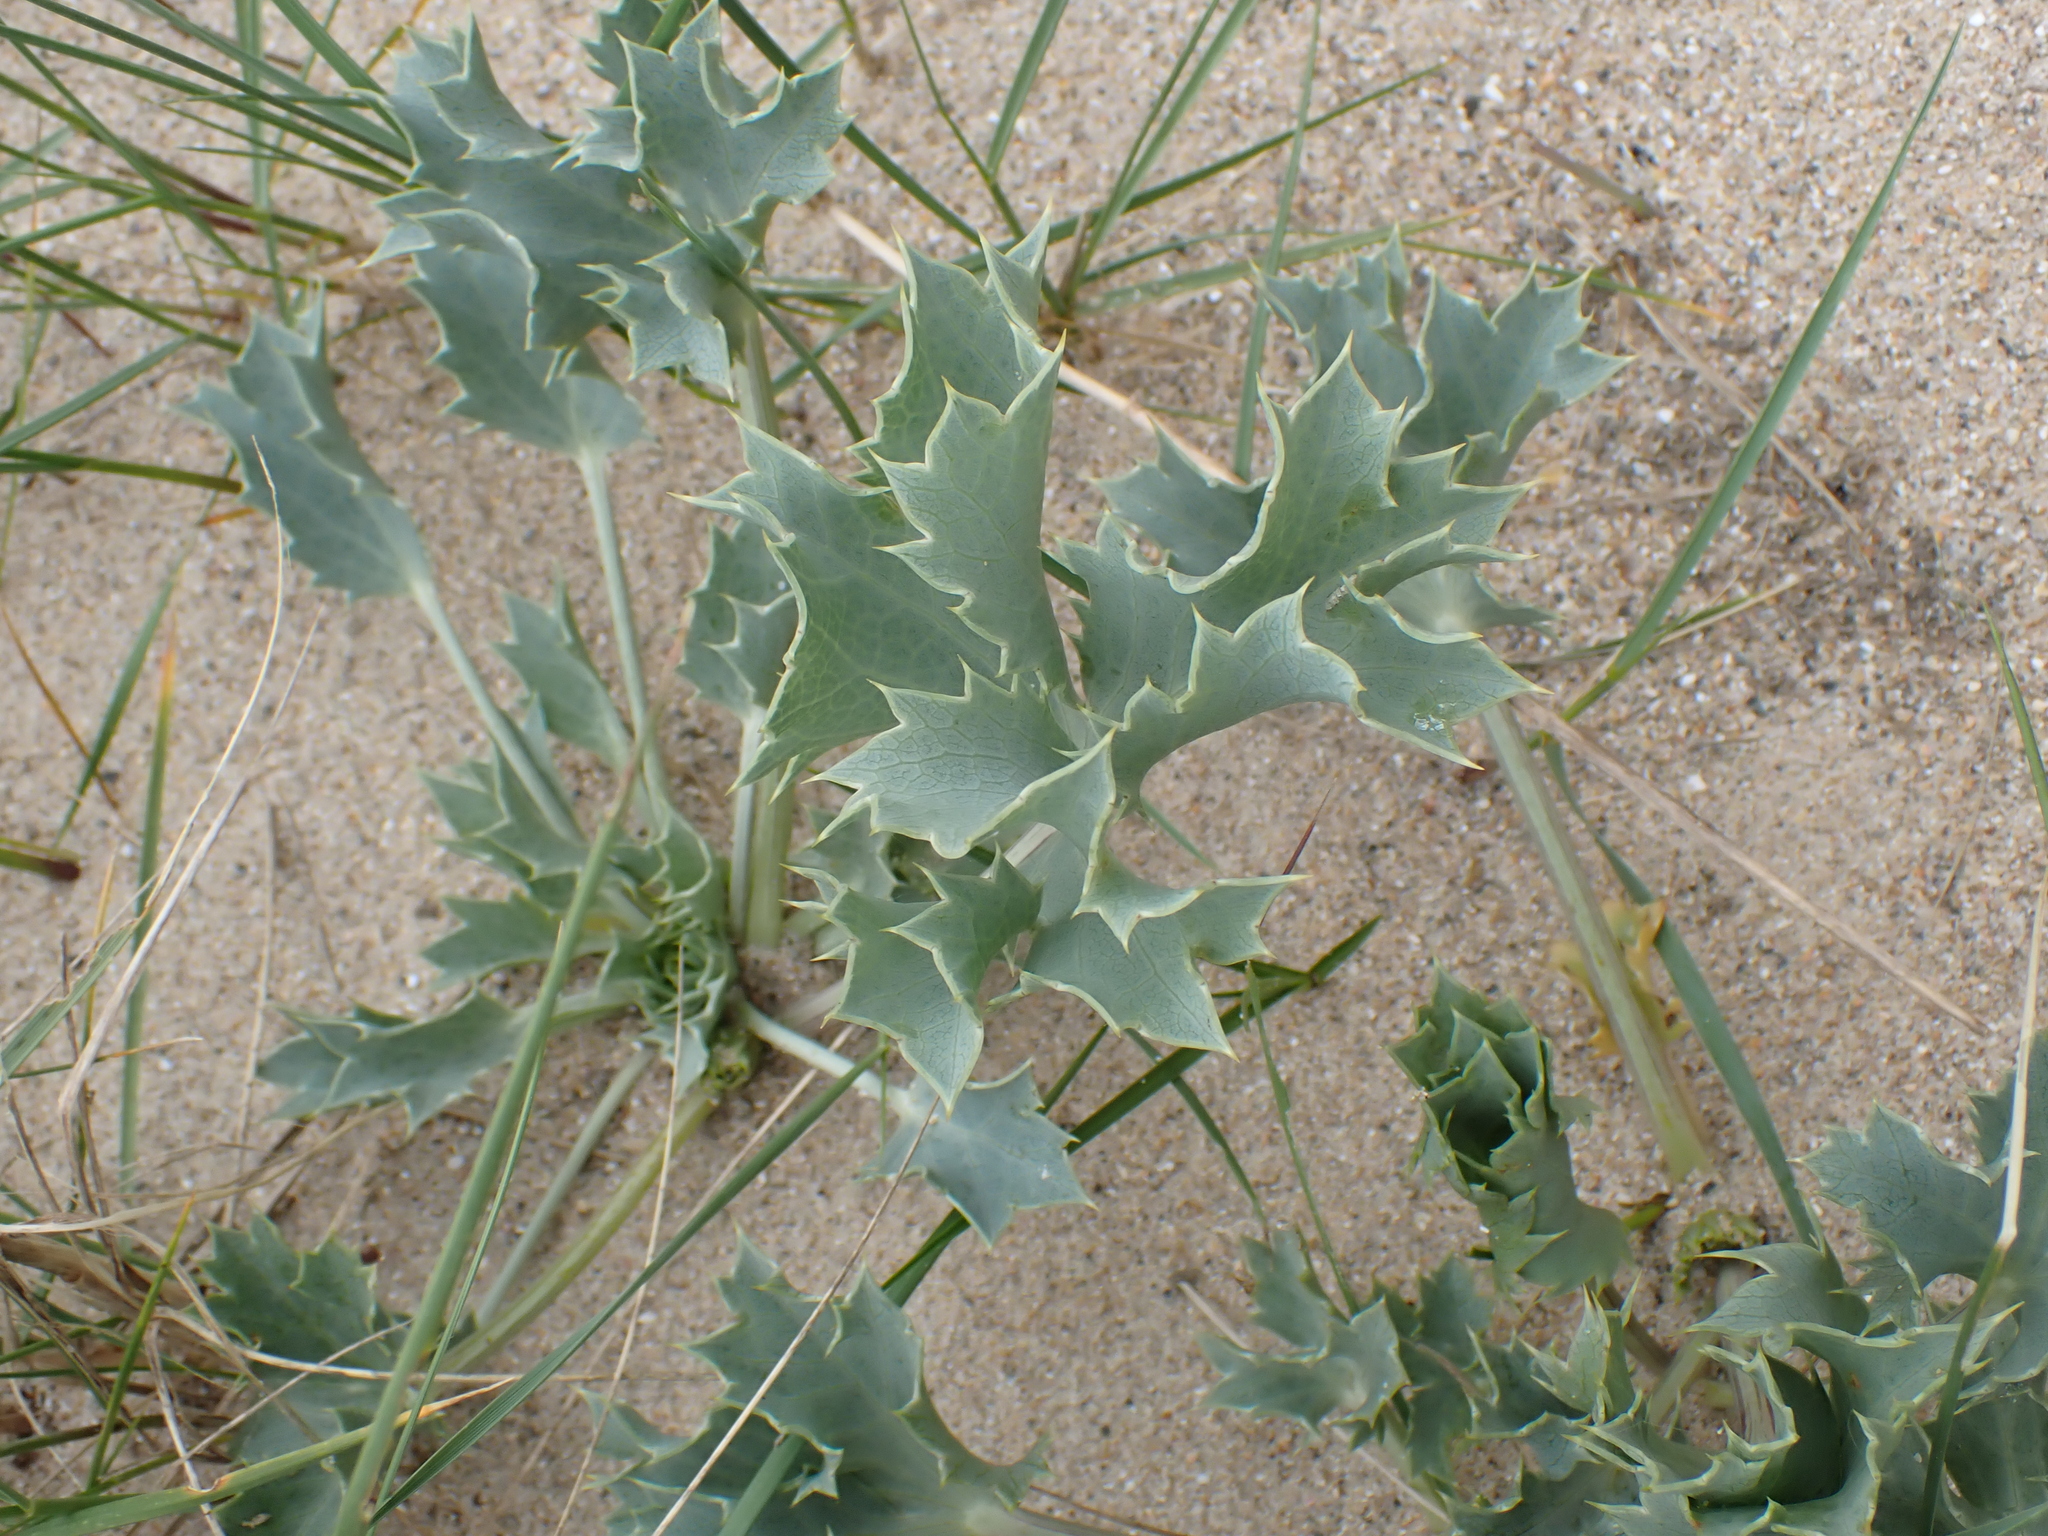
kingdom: Plantae
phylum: Tracheophyta
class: Magnoliopsida
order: Apiales
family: Apiaceae
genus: Eryngium
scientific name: Eryngium maritimum
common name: Sea-holly
